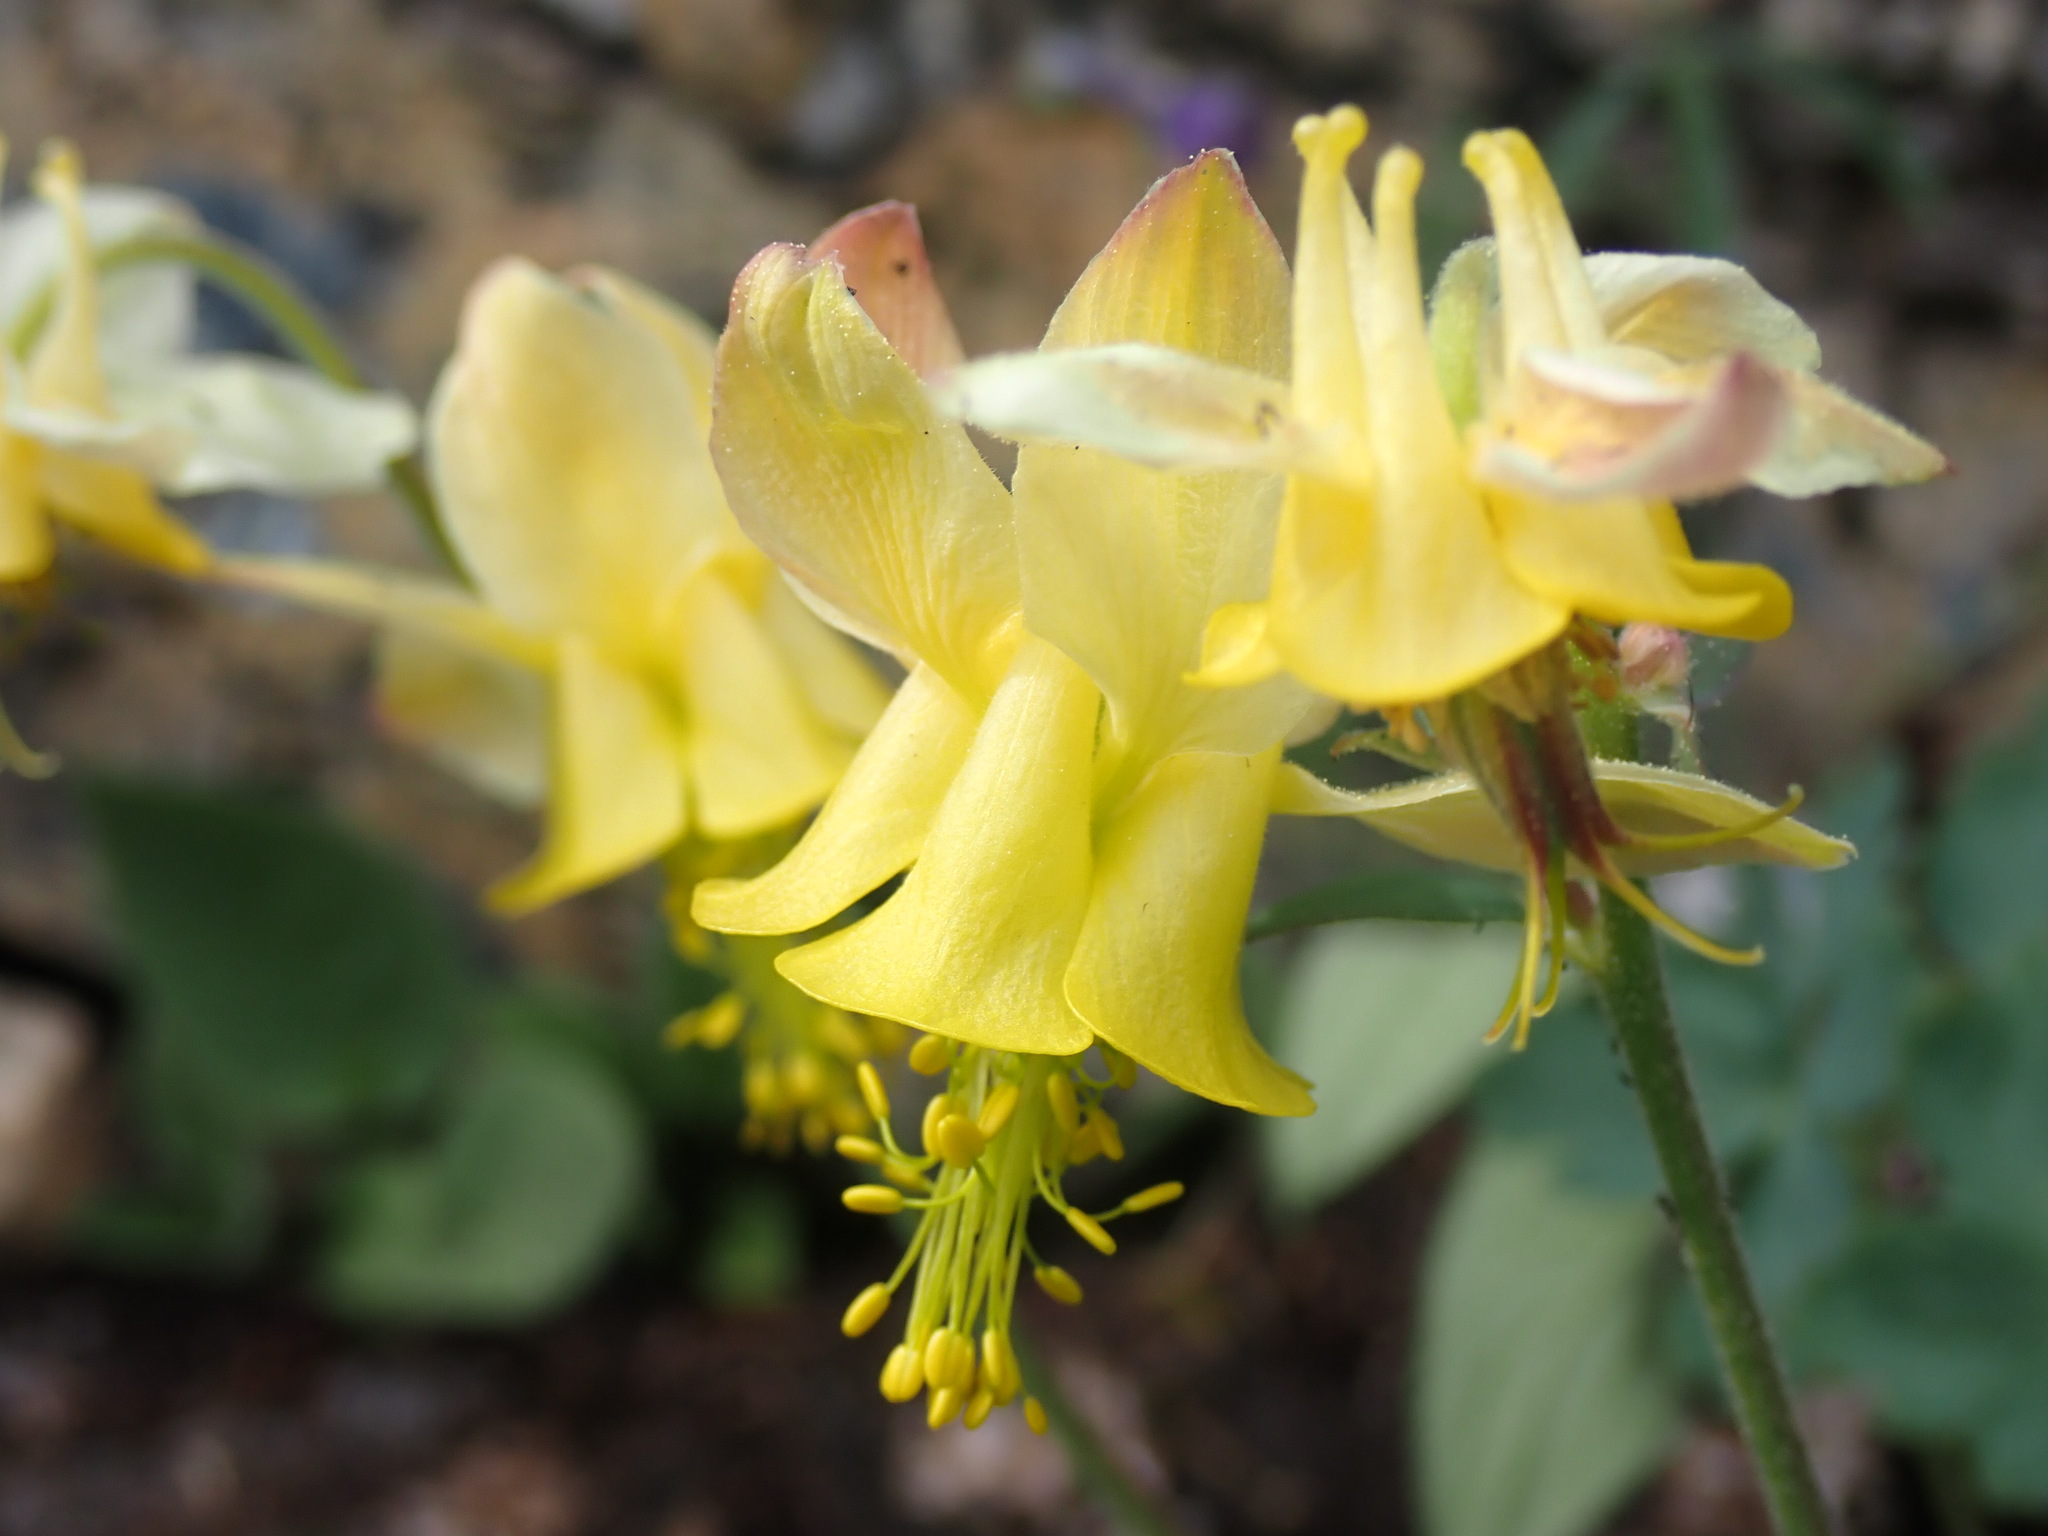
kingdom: Plantae
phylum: Tracheophyta
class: Magnoliopsida
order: Ranunculales
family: Ranunculaceae
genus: Aquilegia
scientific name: Aquilegia flavescens
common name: Yellow columbine
